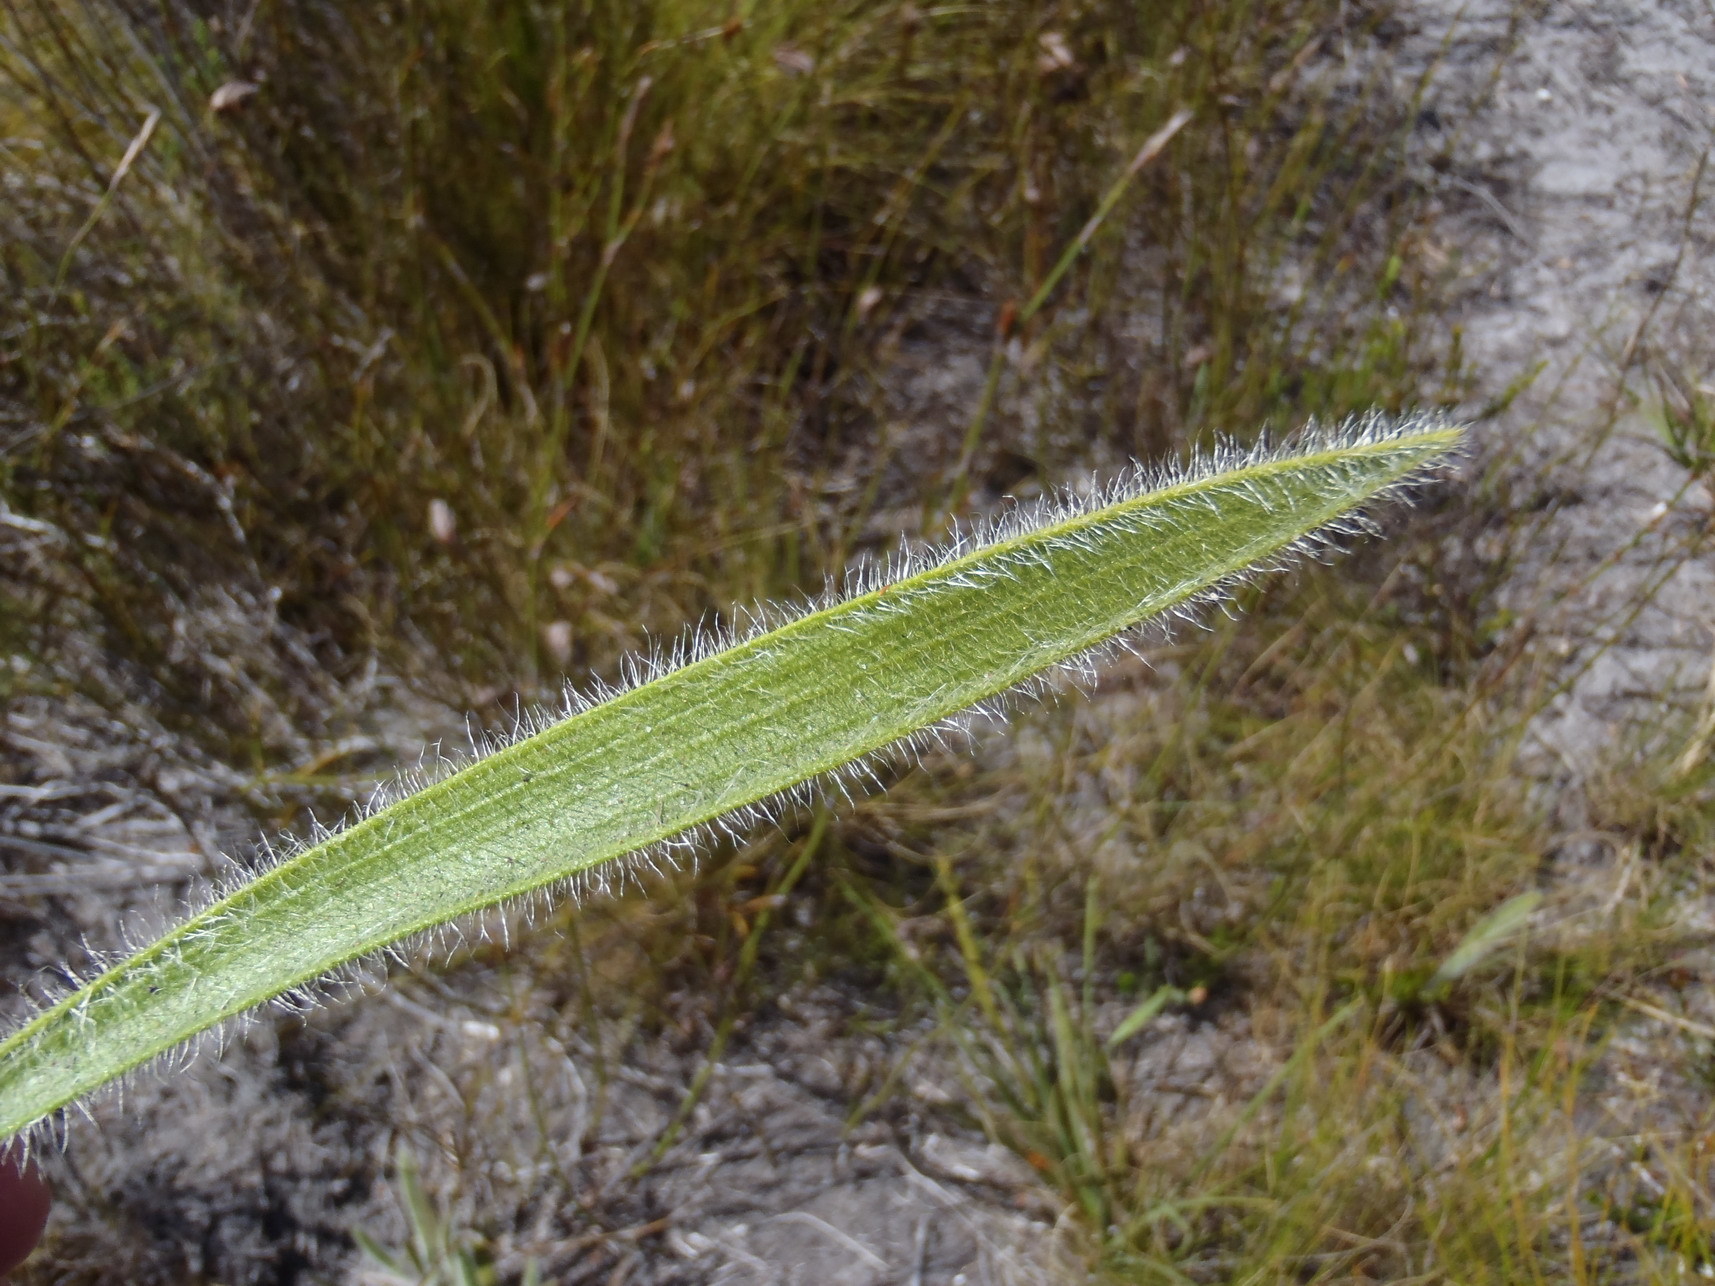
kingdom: Plantae
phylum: Tracheophyta
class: Magnoliopsida
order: Asterales
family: Asteraceae
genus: Corymbium
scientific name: Corymbium villosum
